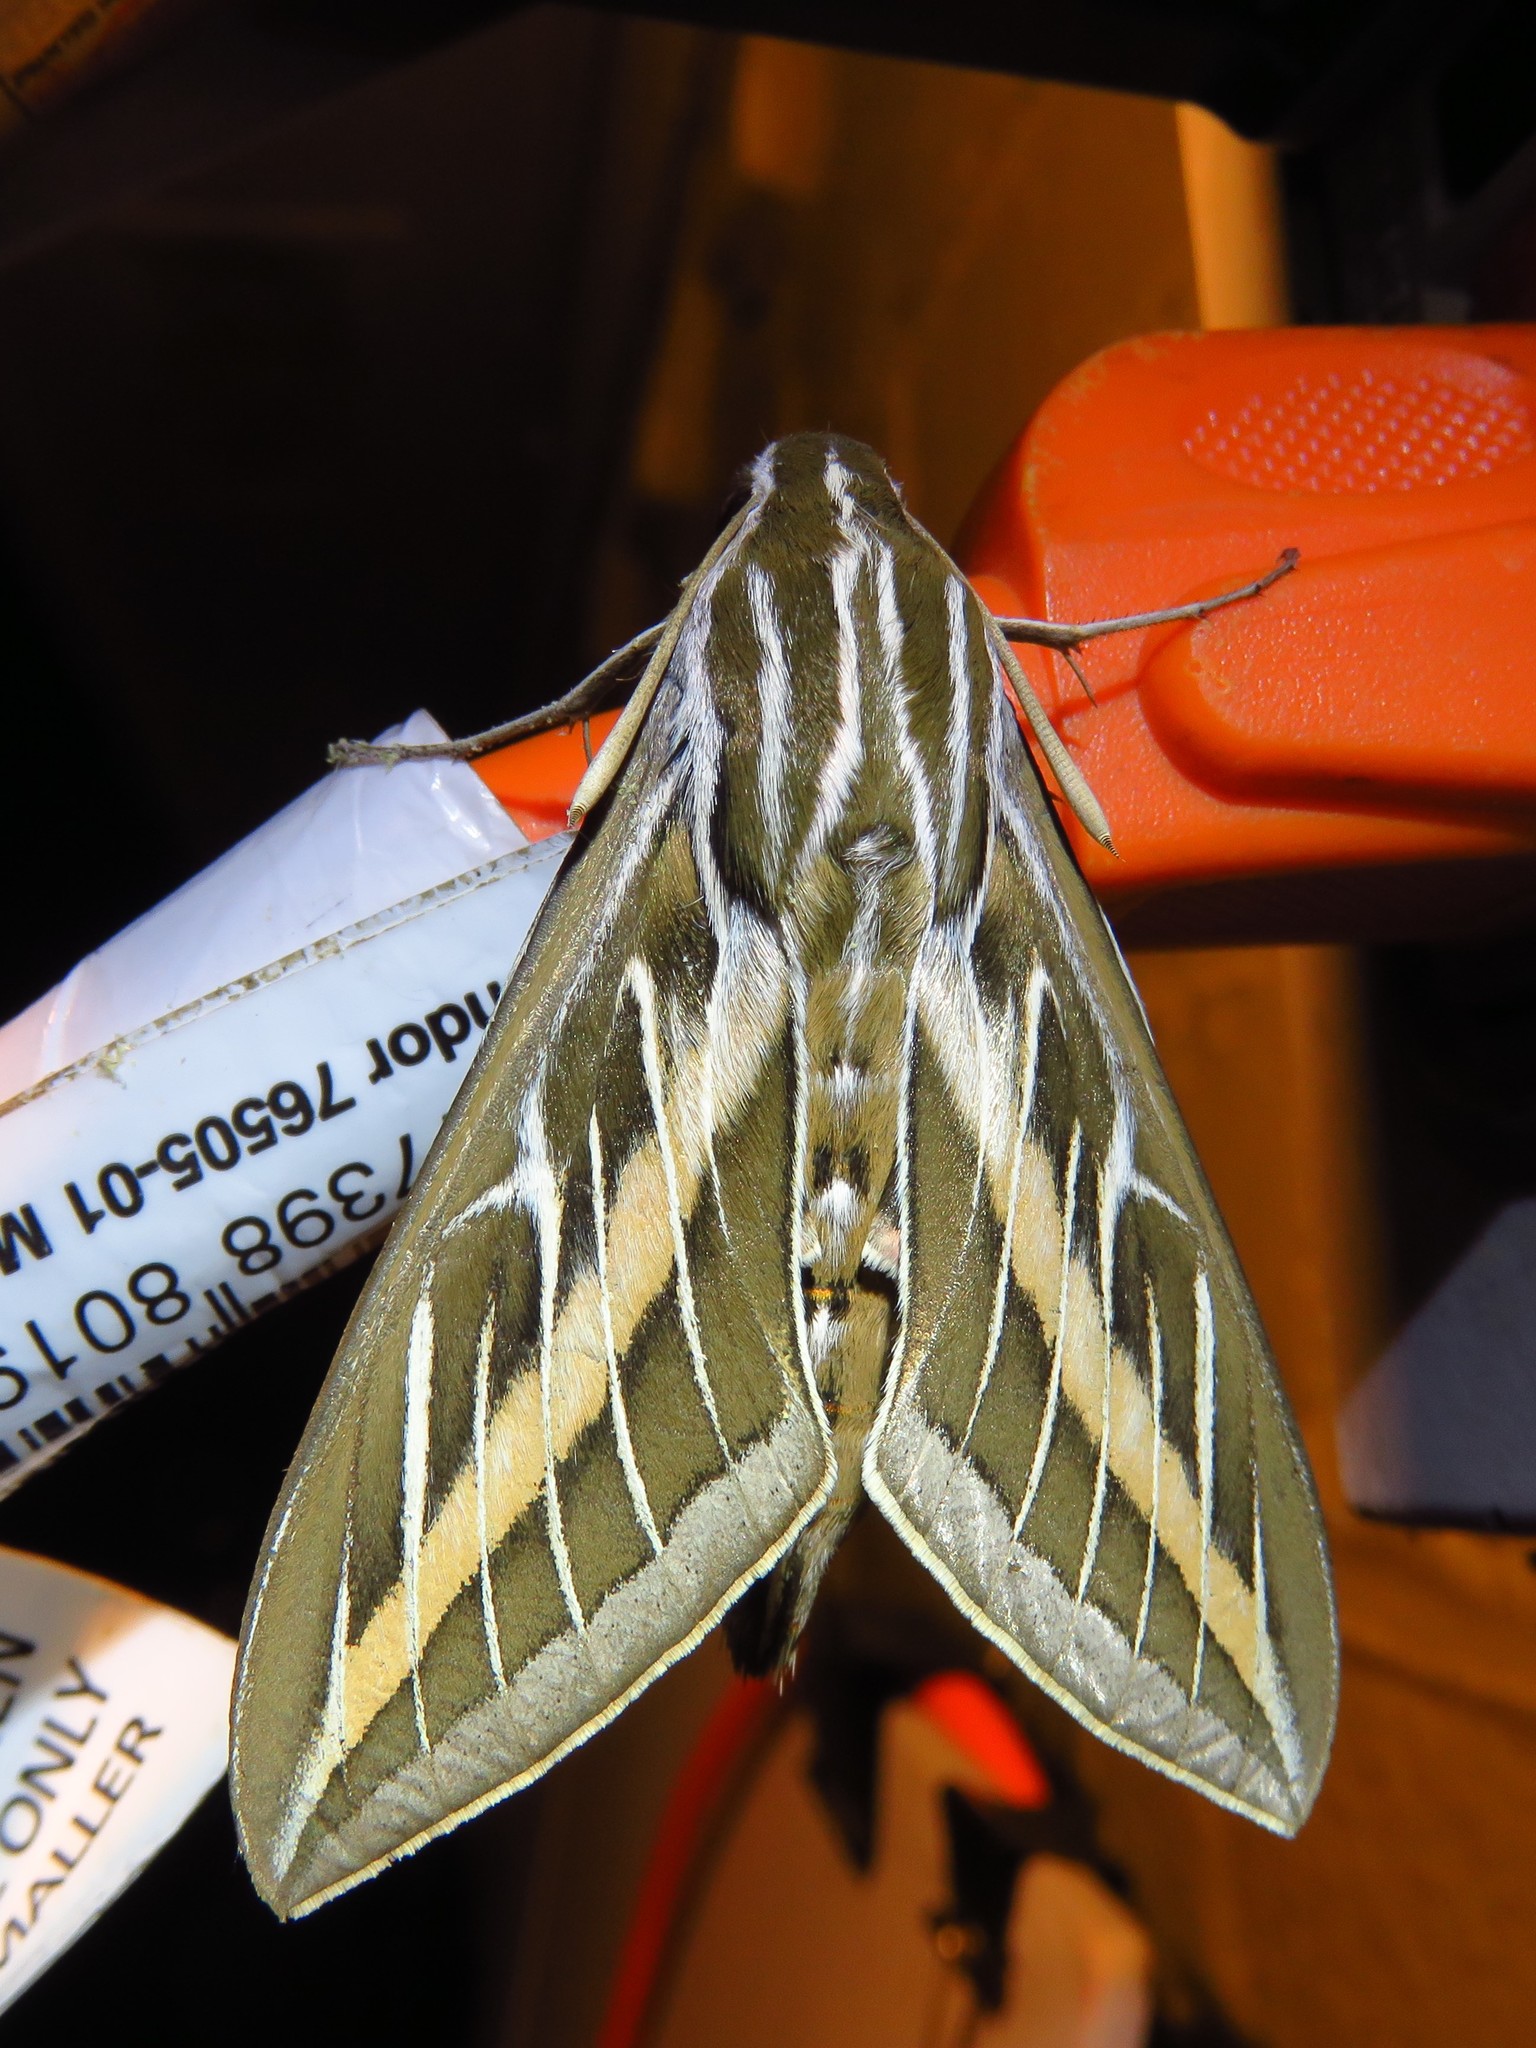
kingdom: Animalia
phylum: Arthropoda
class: Insecta
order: Lepidoptera
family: Sphingidae
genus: Hyles
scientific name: Hyles lineata
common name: White-lined sphinx
